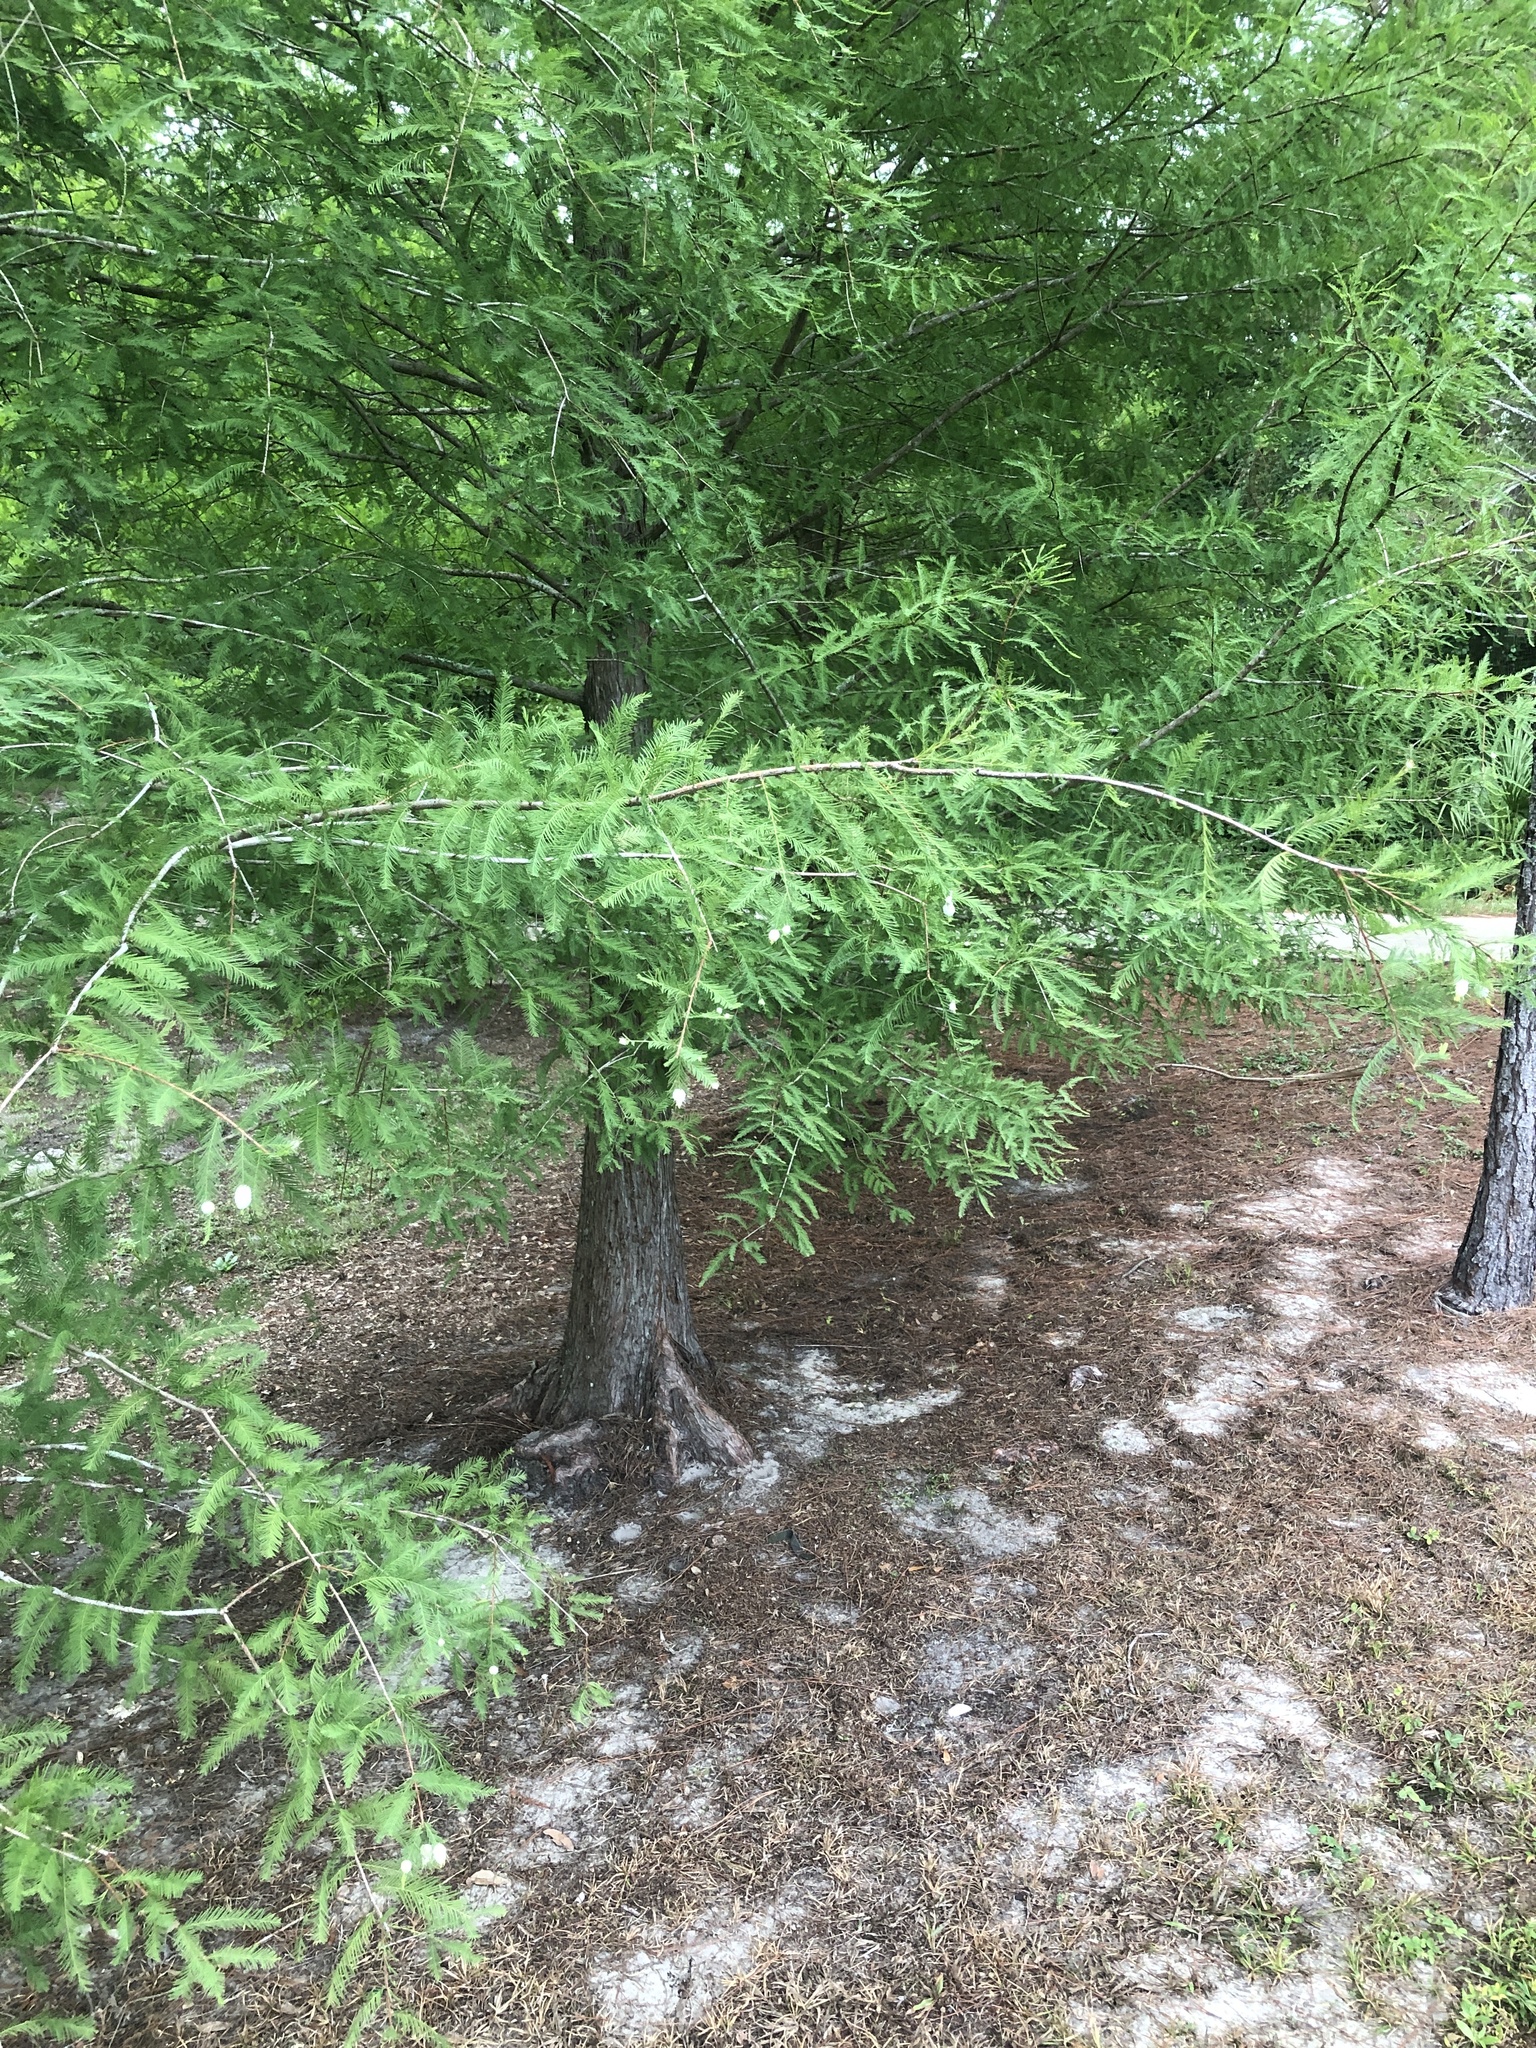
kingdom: Animalia
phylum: Arthropoda
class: Insecta
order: Diptera
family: Cecidomyiidae
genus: Taxodiomyia
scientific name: Taxodiomyia cupressiananassa
